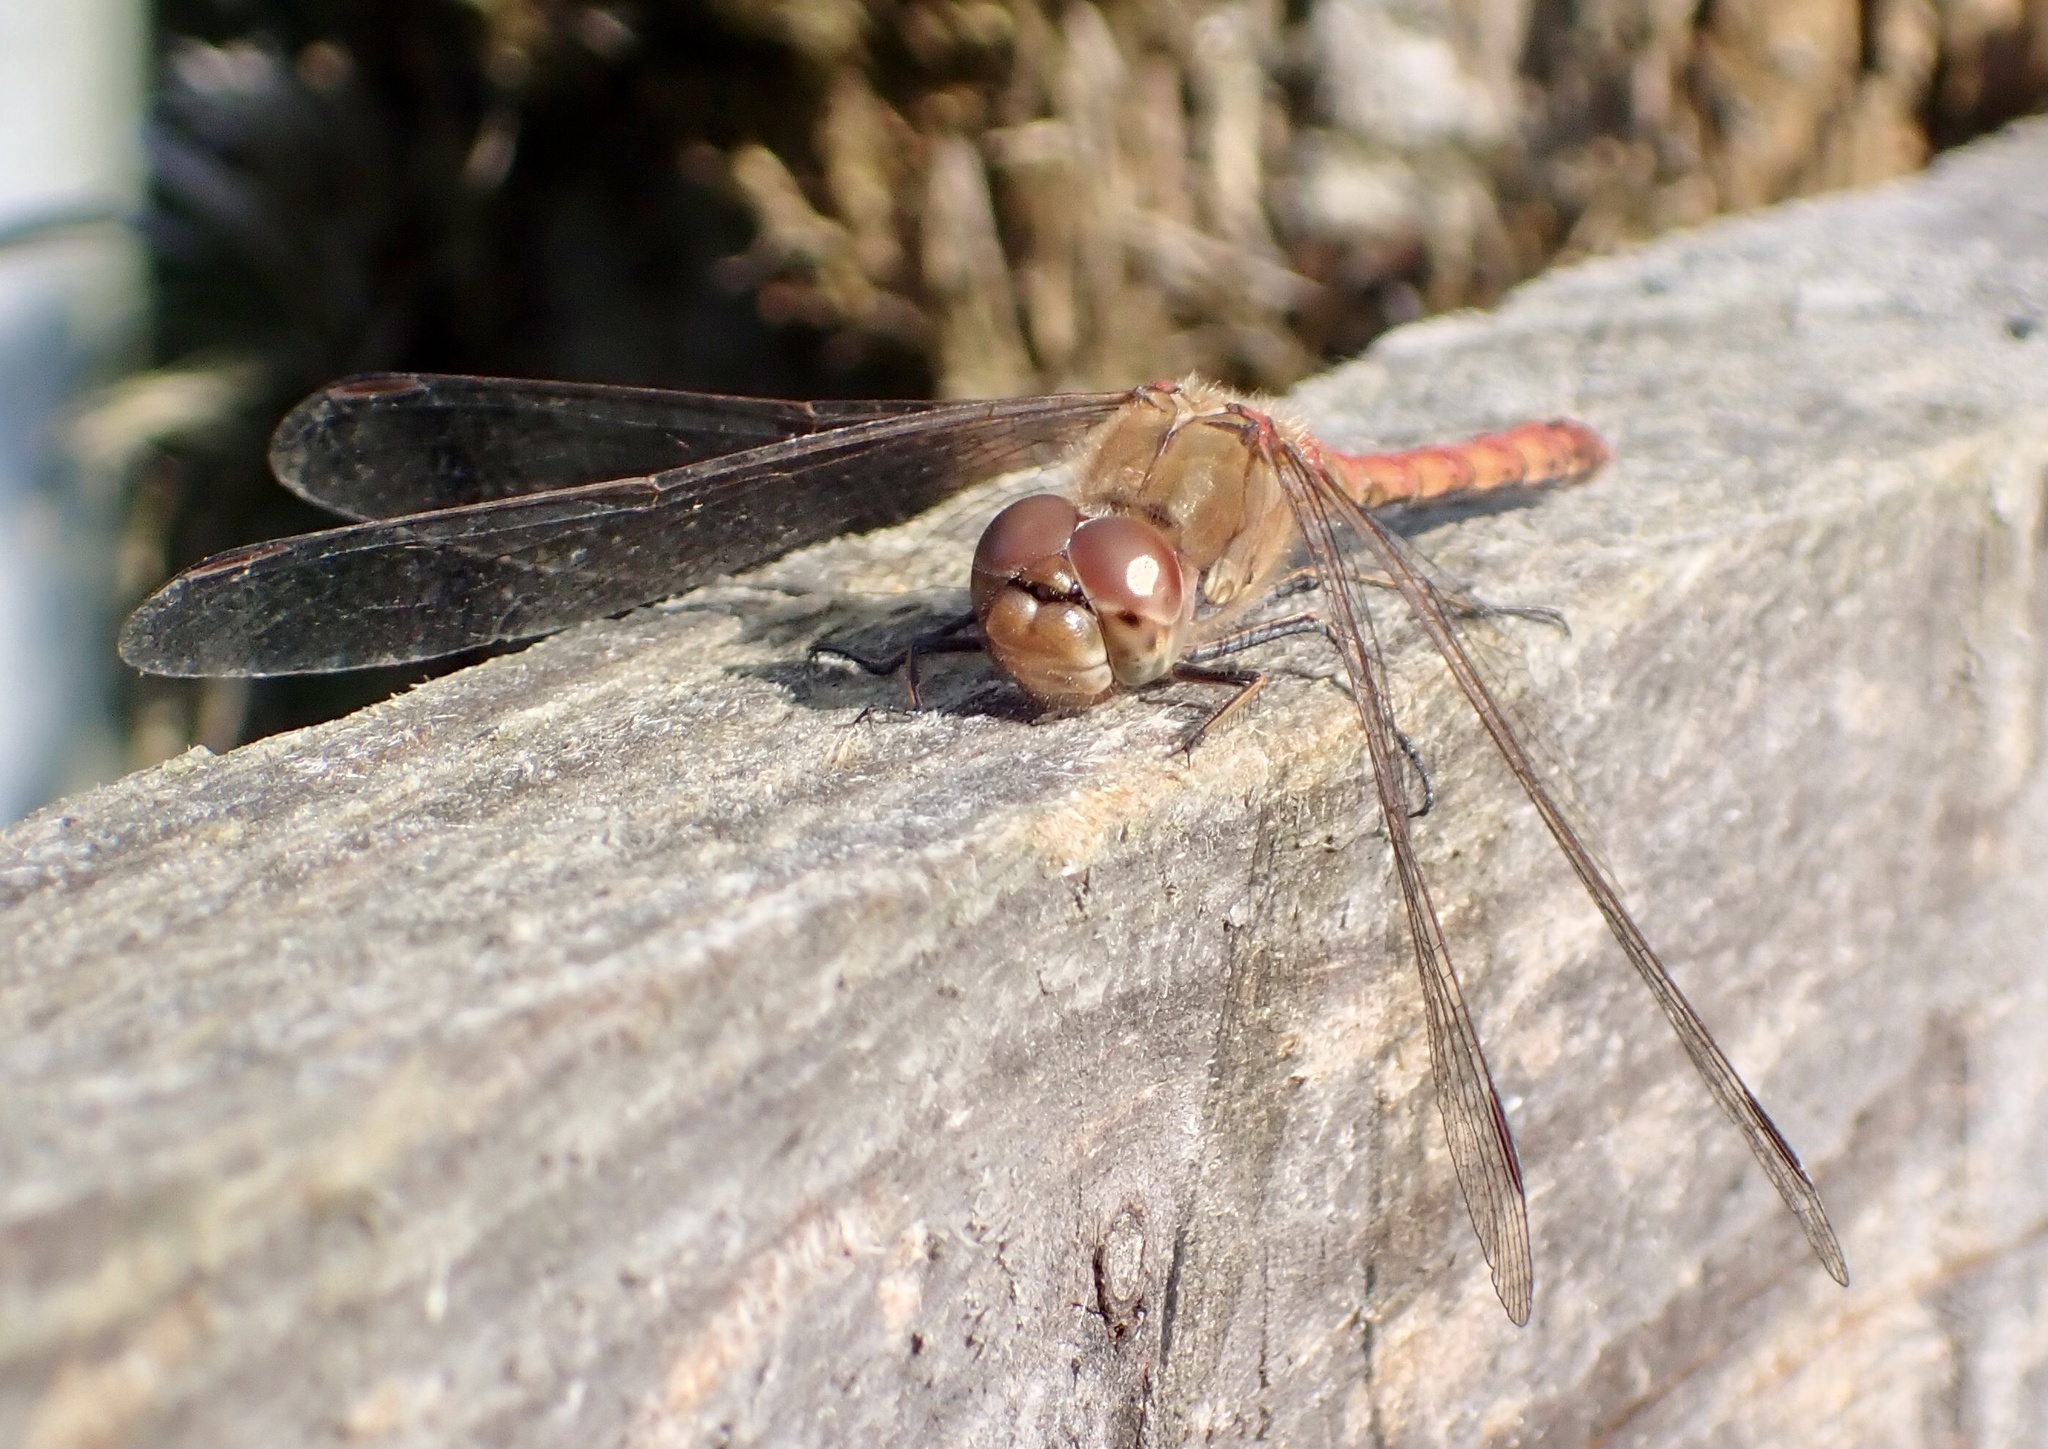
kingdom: Animalia
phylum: Arthropoda
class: Insecta
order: Odonata
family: Libellulidae
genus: Sympetrum
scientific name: Sympetrum striolatum
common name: Common darter
